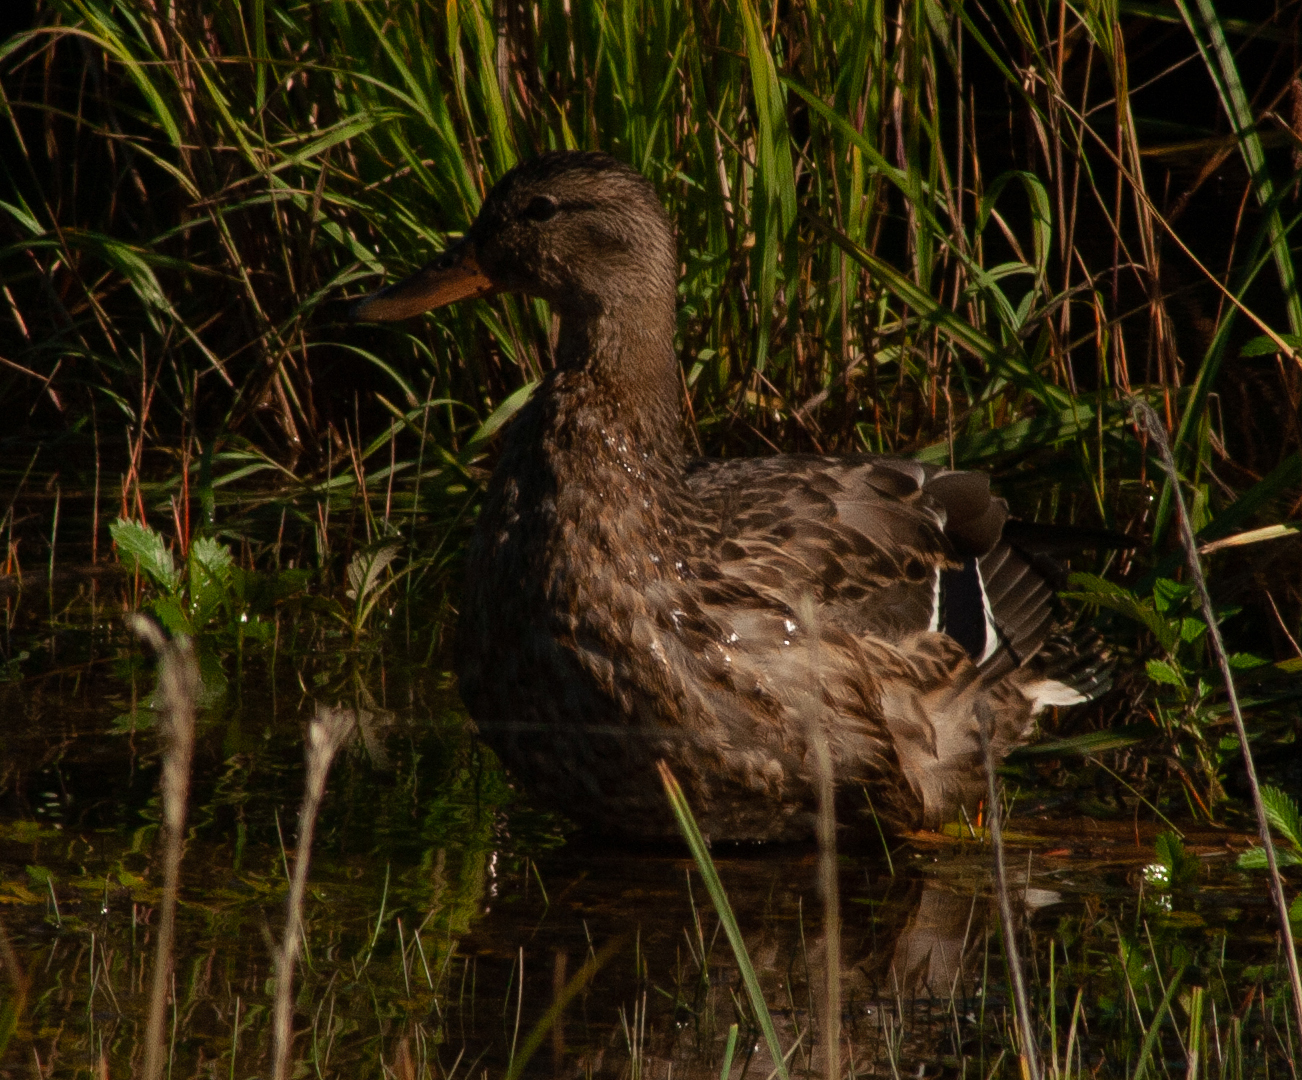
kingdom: Animalia
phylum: Chordata
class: Aves
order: Anseriformes
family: Anatidae
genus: Anas
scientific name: Anas platyrhynchos
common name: Mallard
